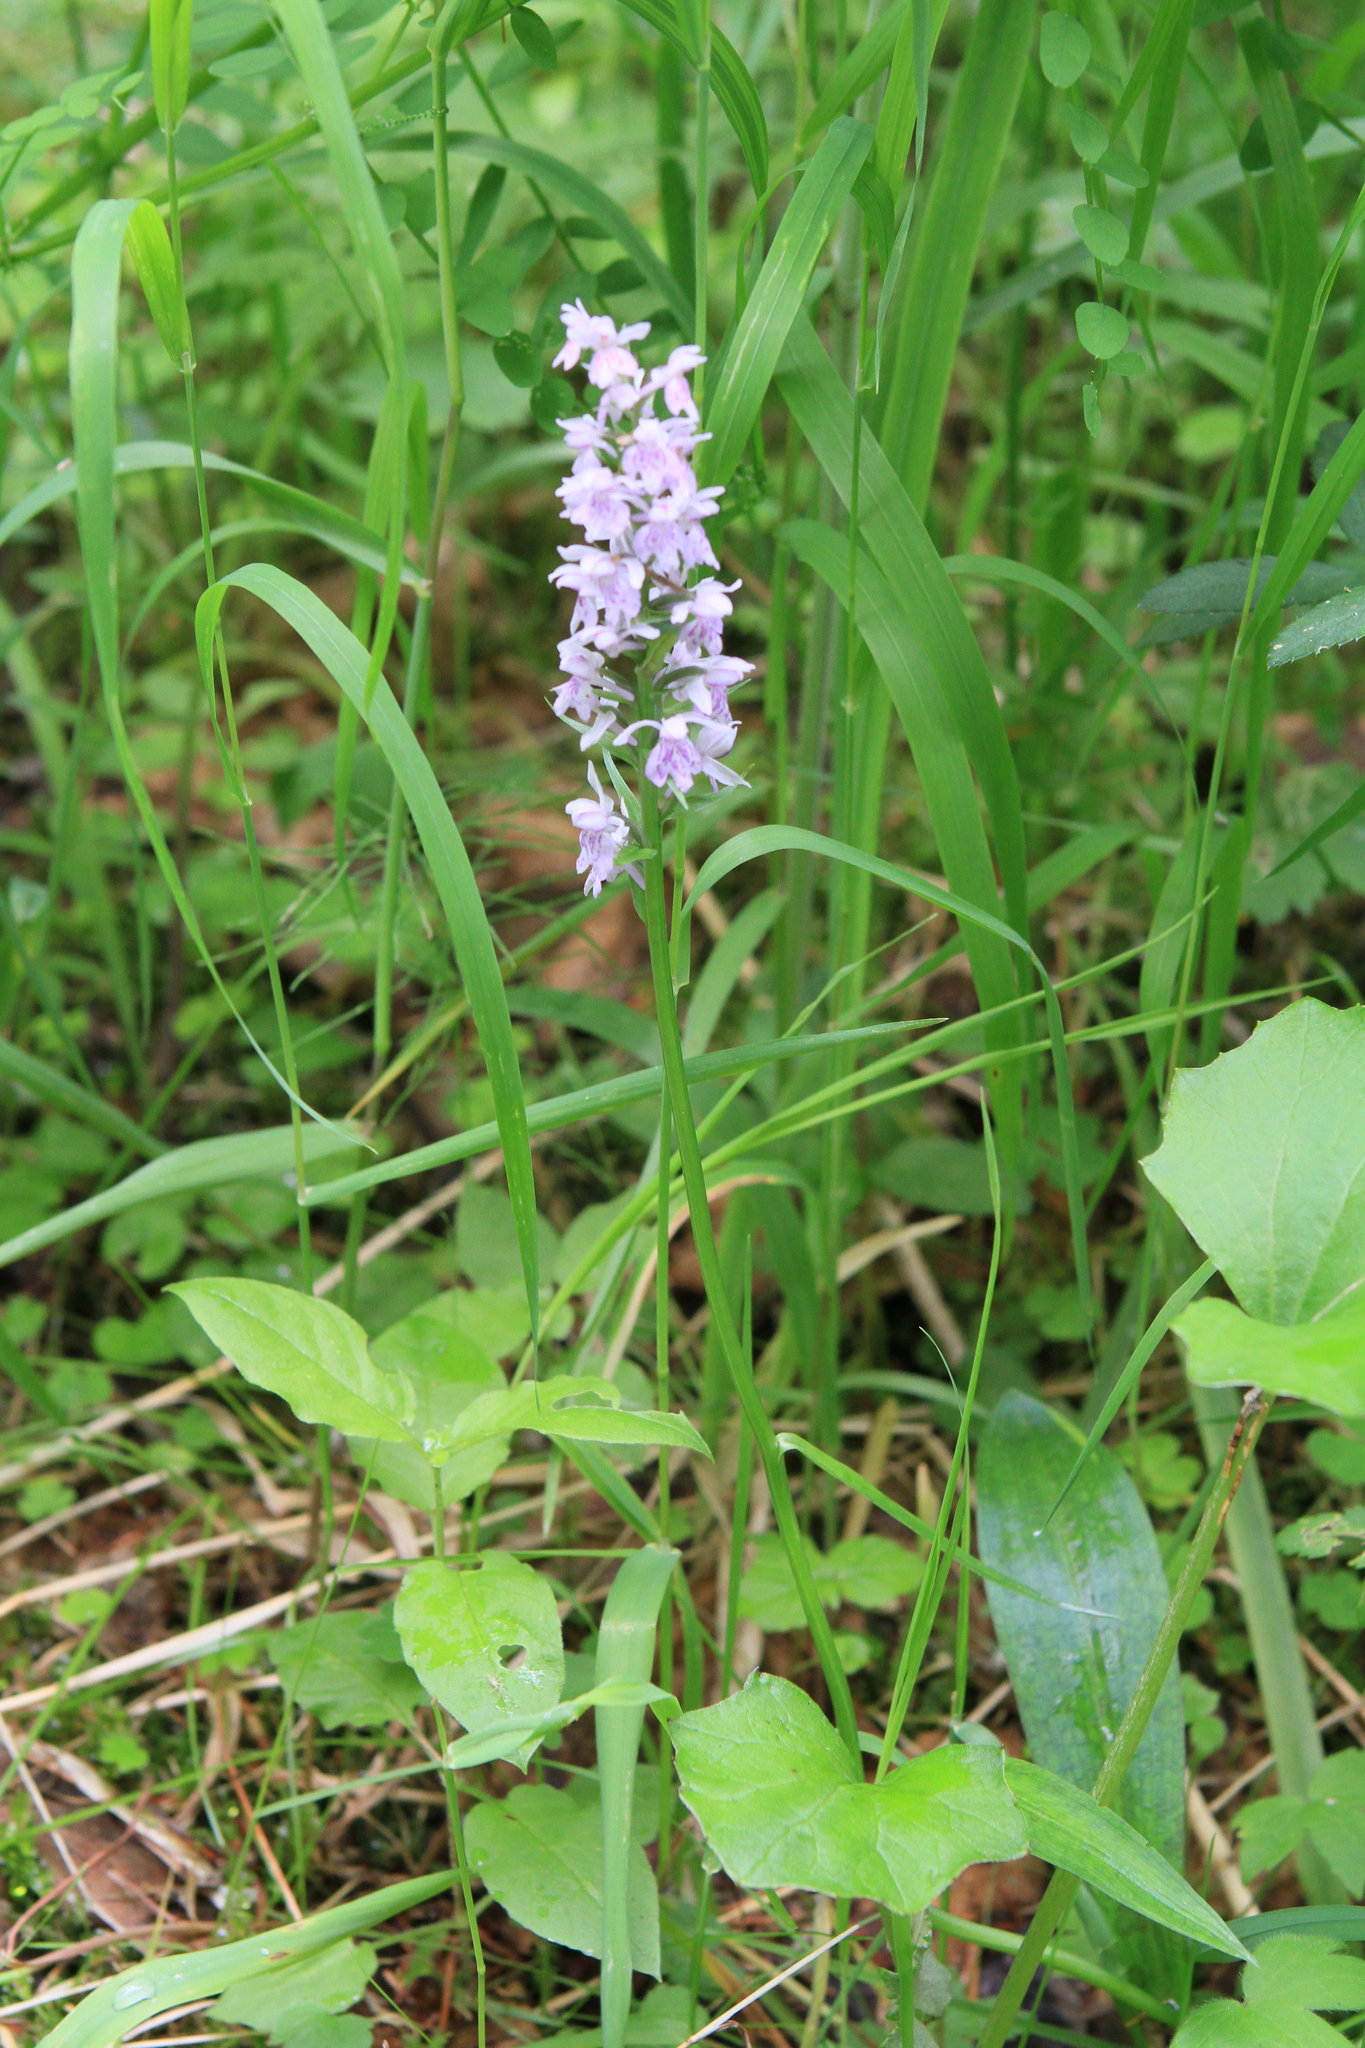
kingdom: Plantae
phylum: Tracheophyta
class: Liliopsida
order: Asparagales
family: Orchidaceae
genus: Dactylorhiza
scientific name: Dactylorhiza maculata
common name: Heath spotted-orchid
